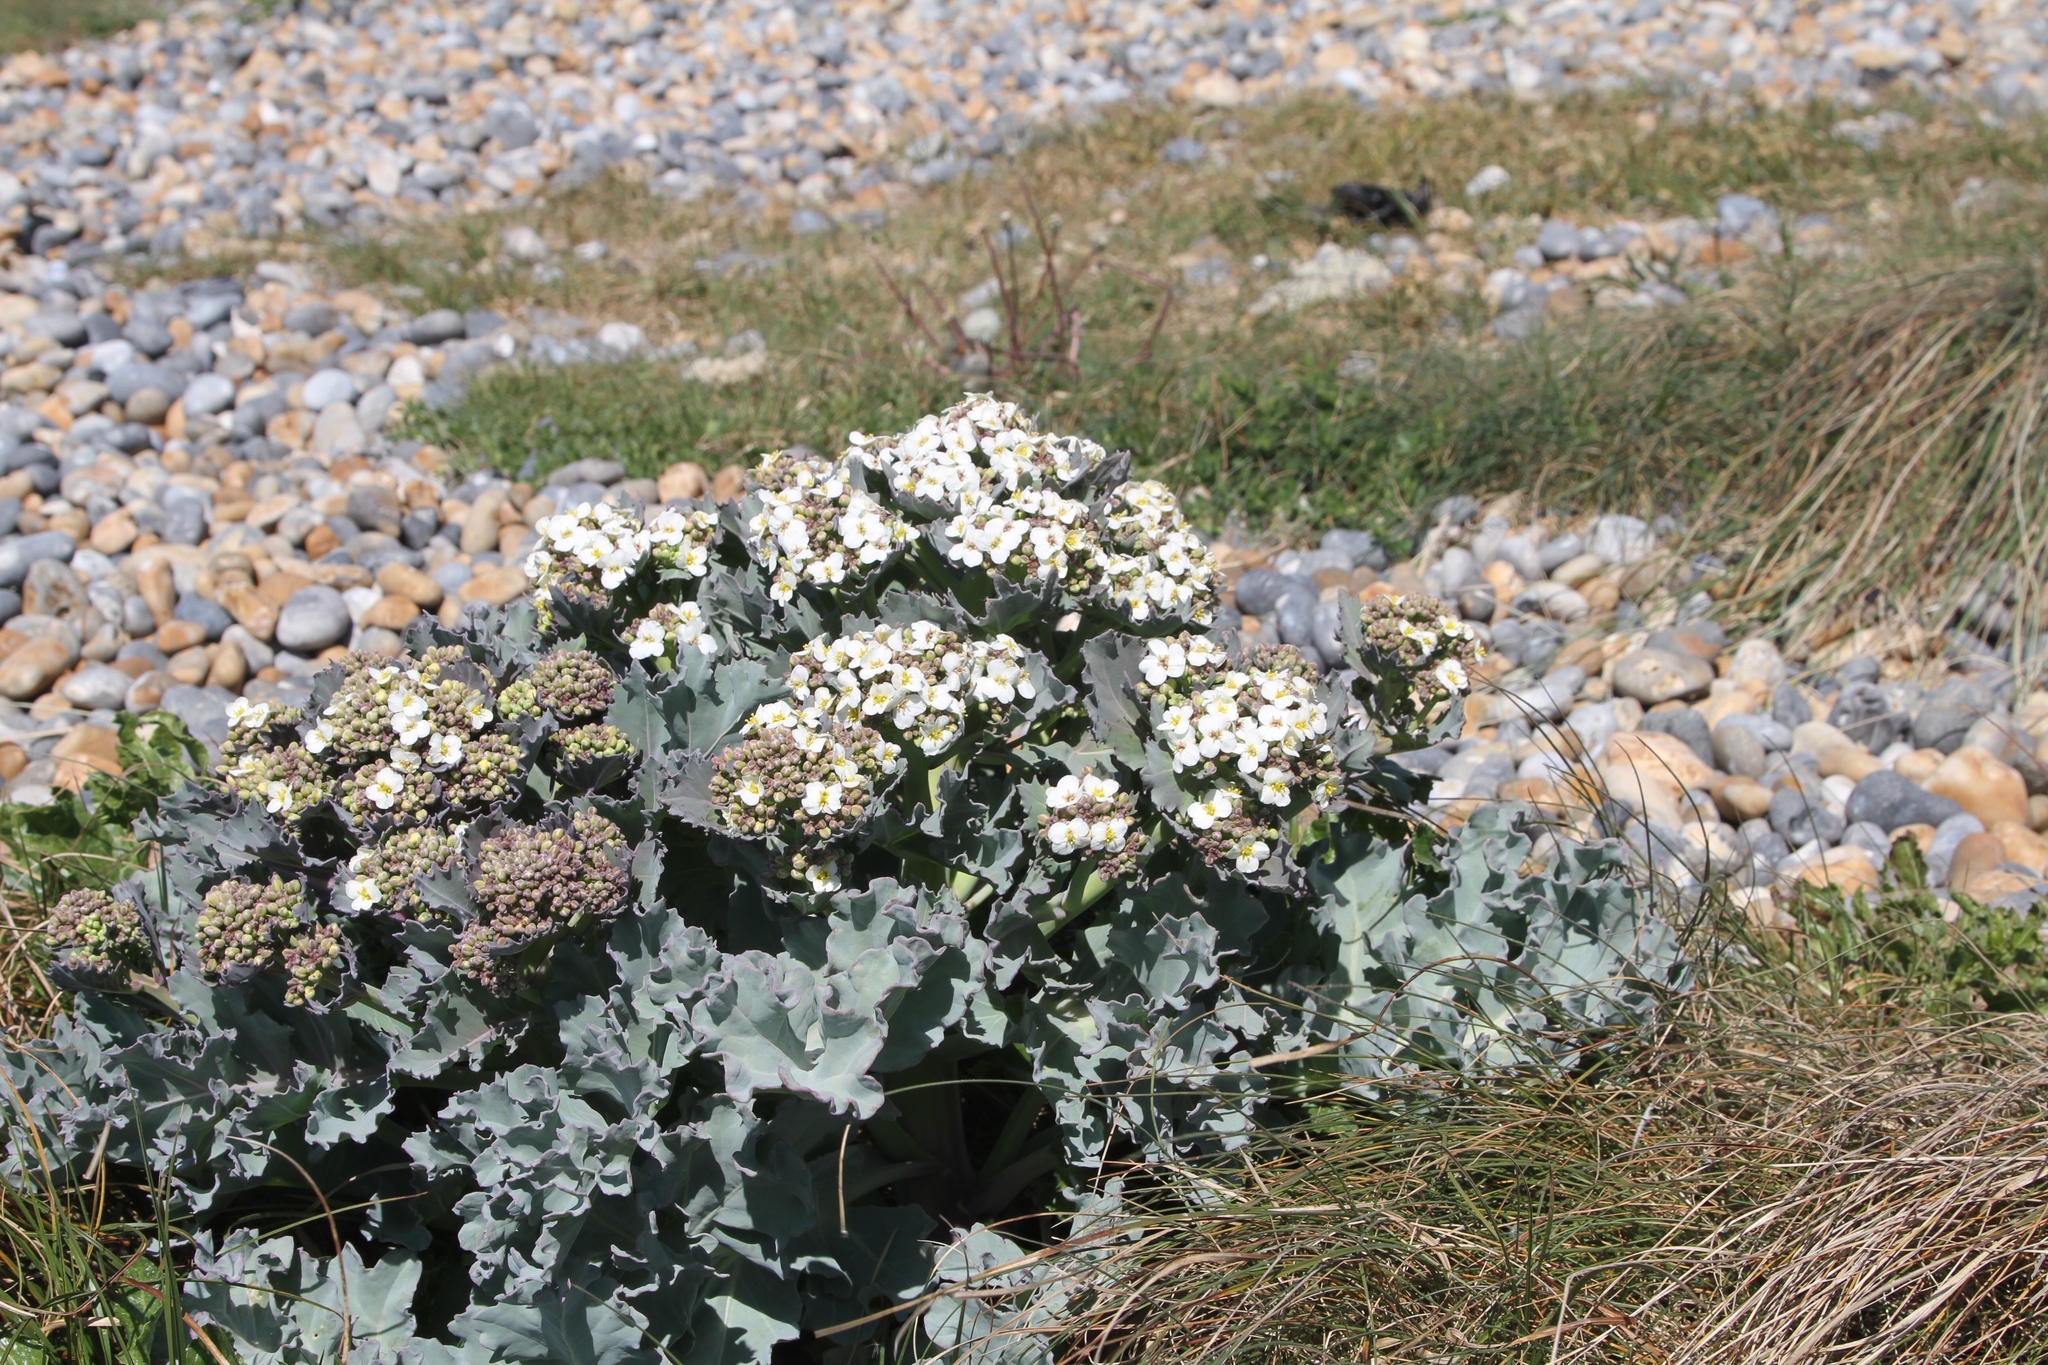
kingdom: Plantae
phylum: Tracheophyta
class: Magnoliopsida
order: Brassicales
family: Brassicaceae
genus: Crambe
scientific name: Crambe maritima
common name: Sea-kale
